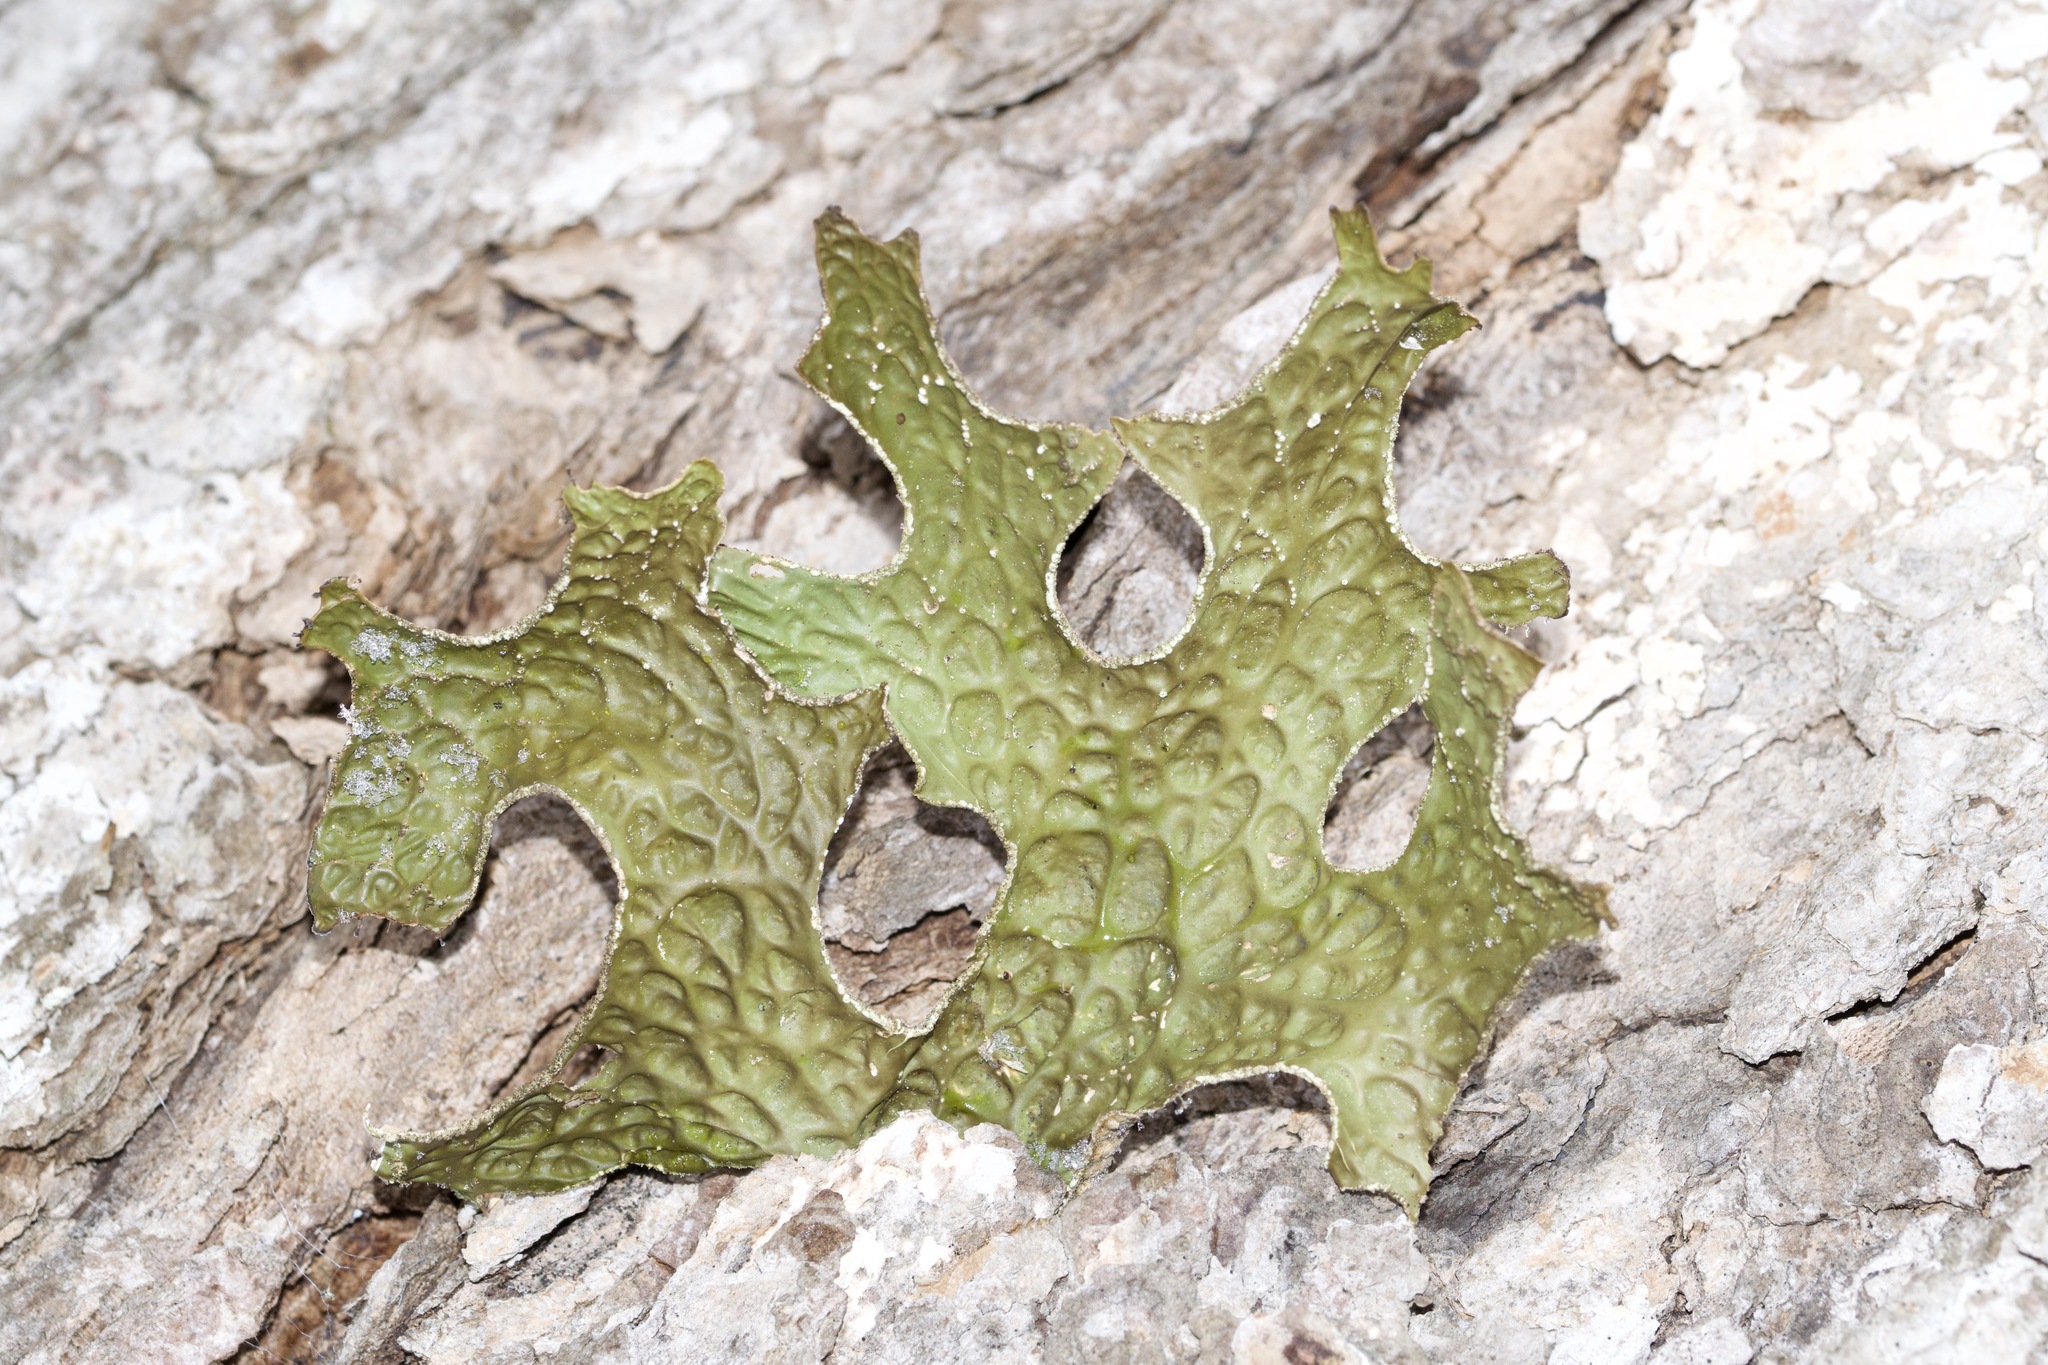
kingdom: Fungi
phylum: Ascomycota
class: Lecanoromycetes
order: Peltigerales
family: Lobariaceae
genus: Lobaria
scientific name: Lobaria pulmonaria
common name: Lungwort
